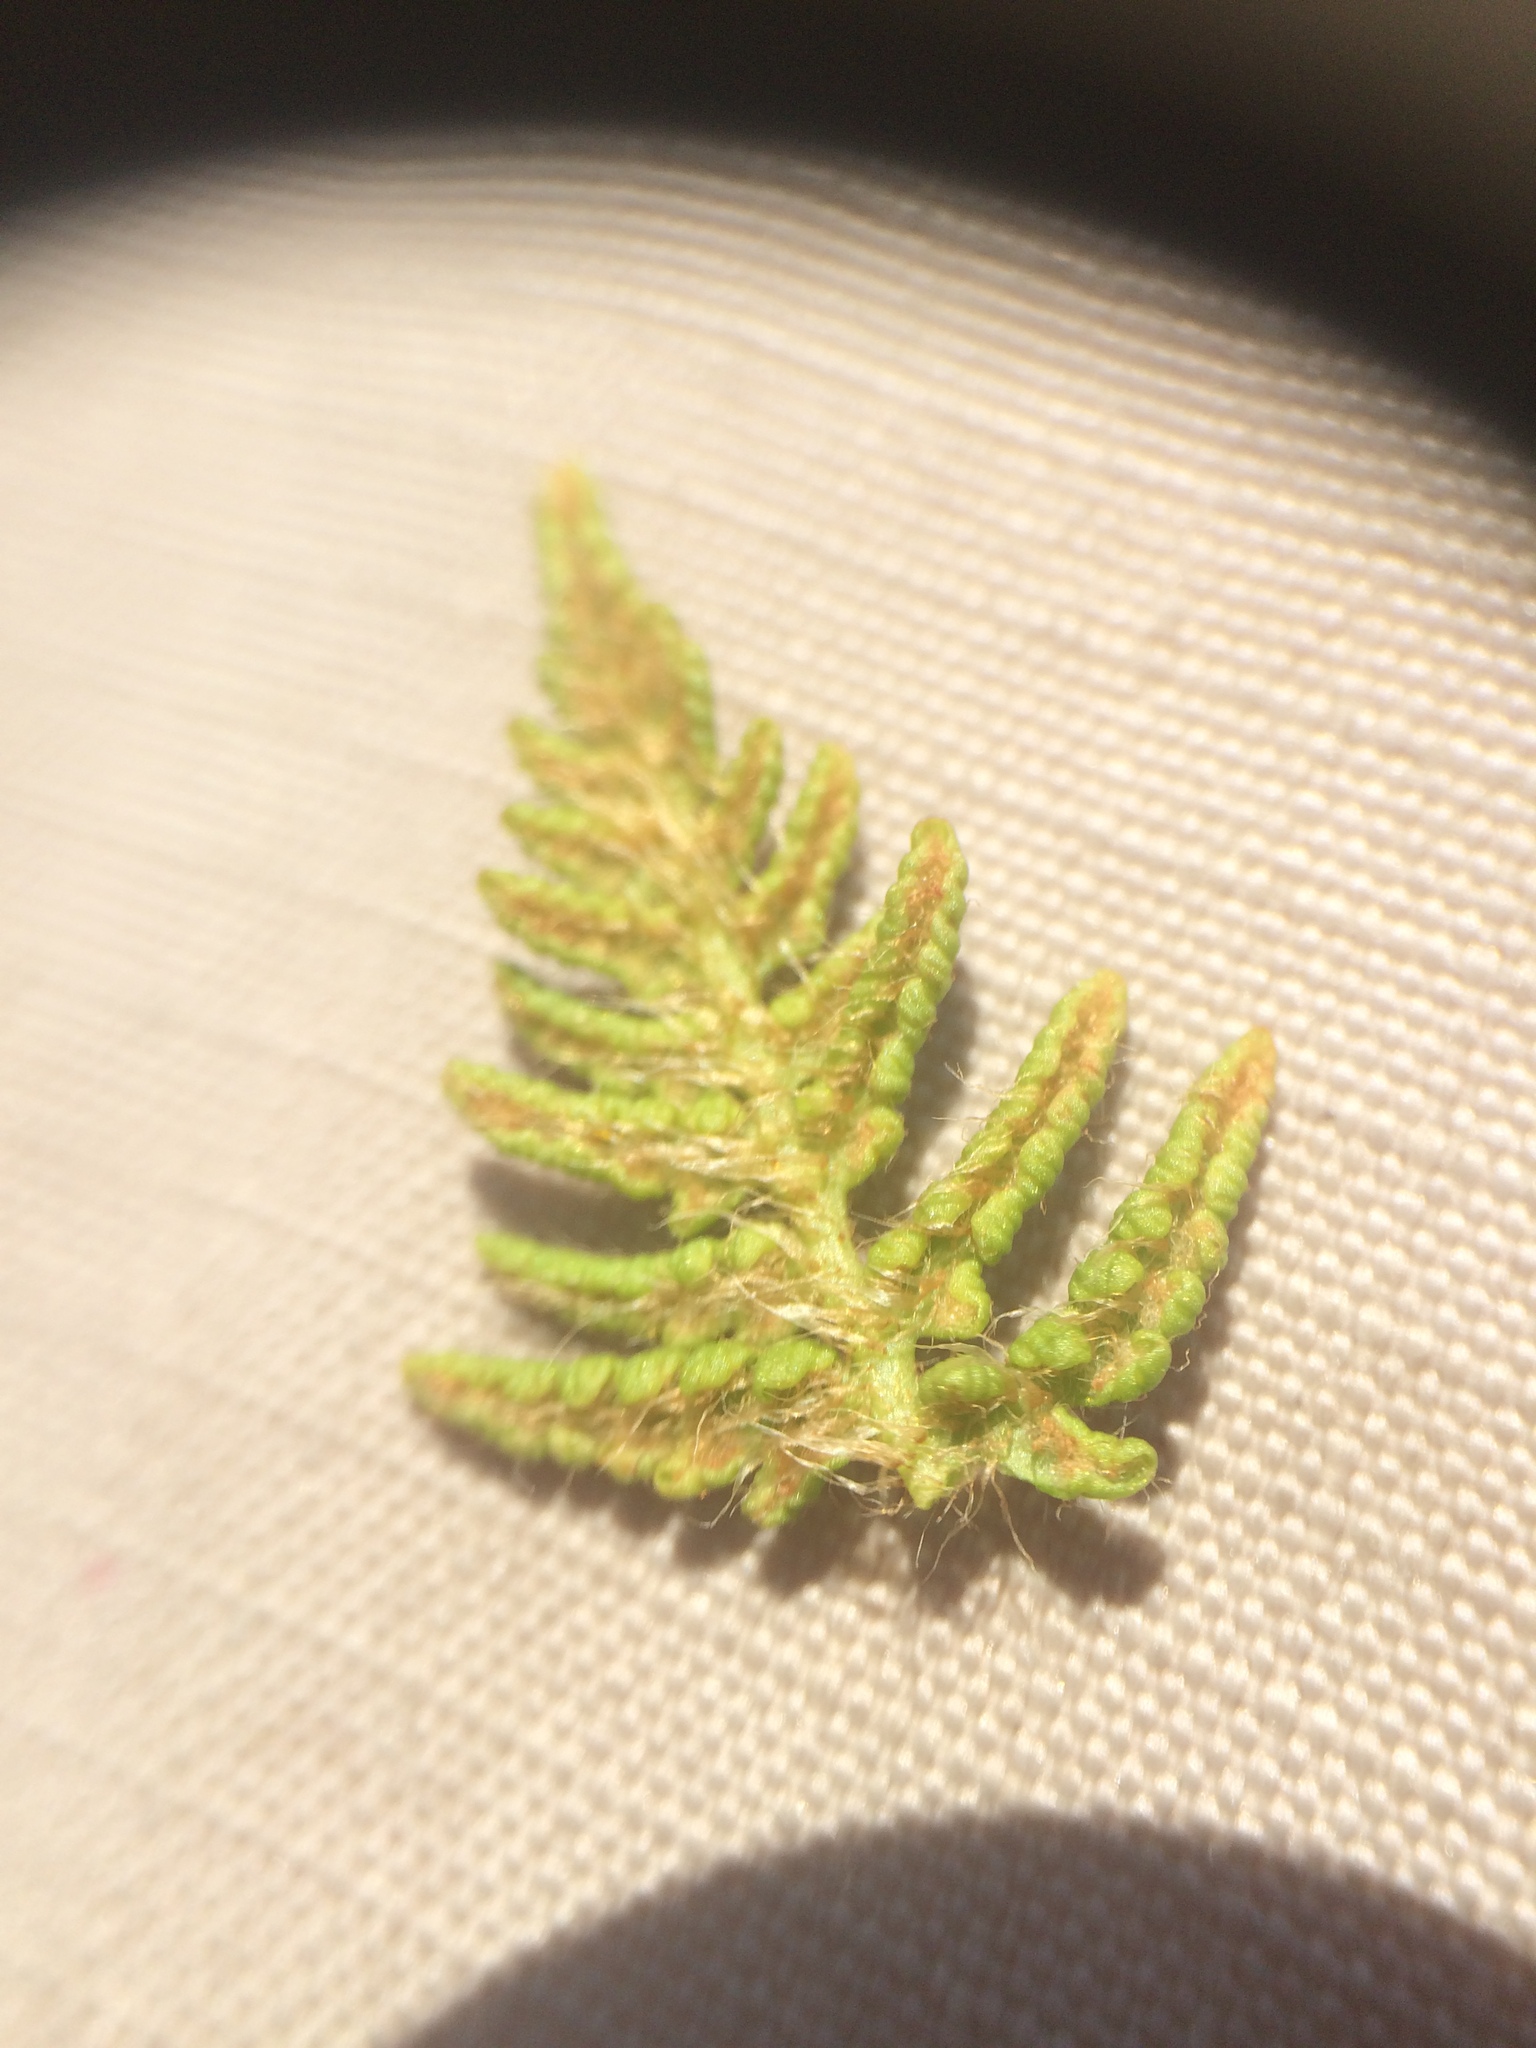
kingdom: Plantae
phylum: Tracheophyta
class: Polypodiopsida
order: Polypodiales
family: Woodsiaceae
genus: Woodsia
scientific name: Woodsia ilvensis
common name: Fragrant woodsia
